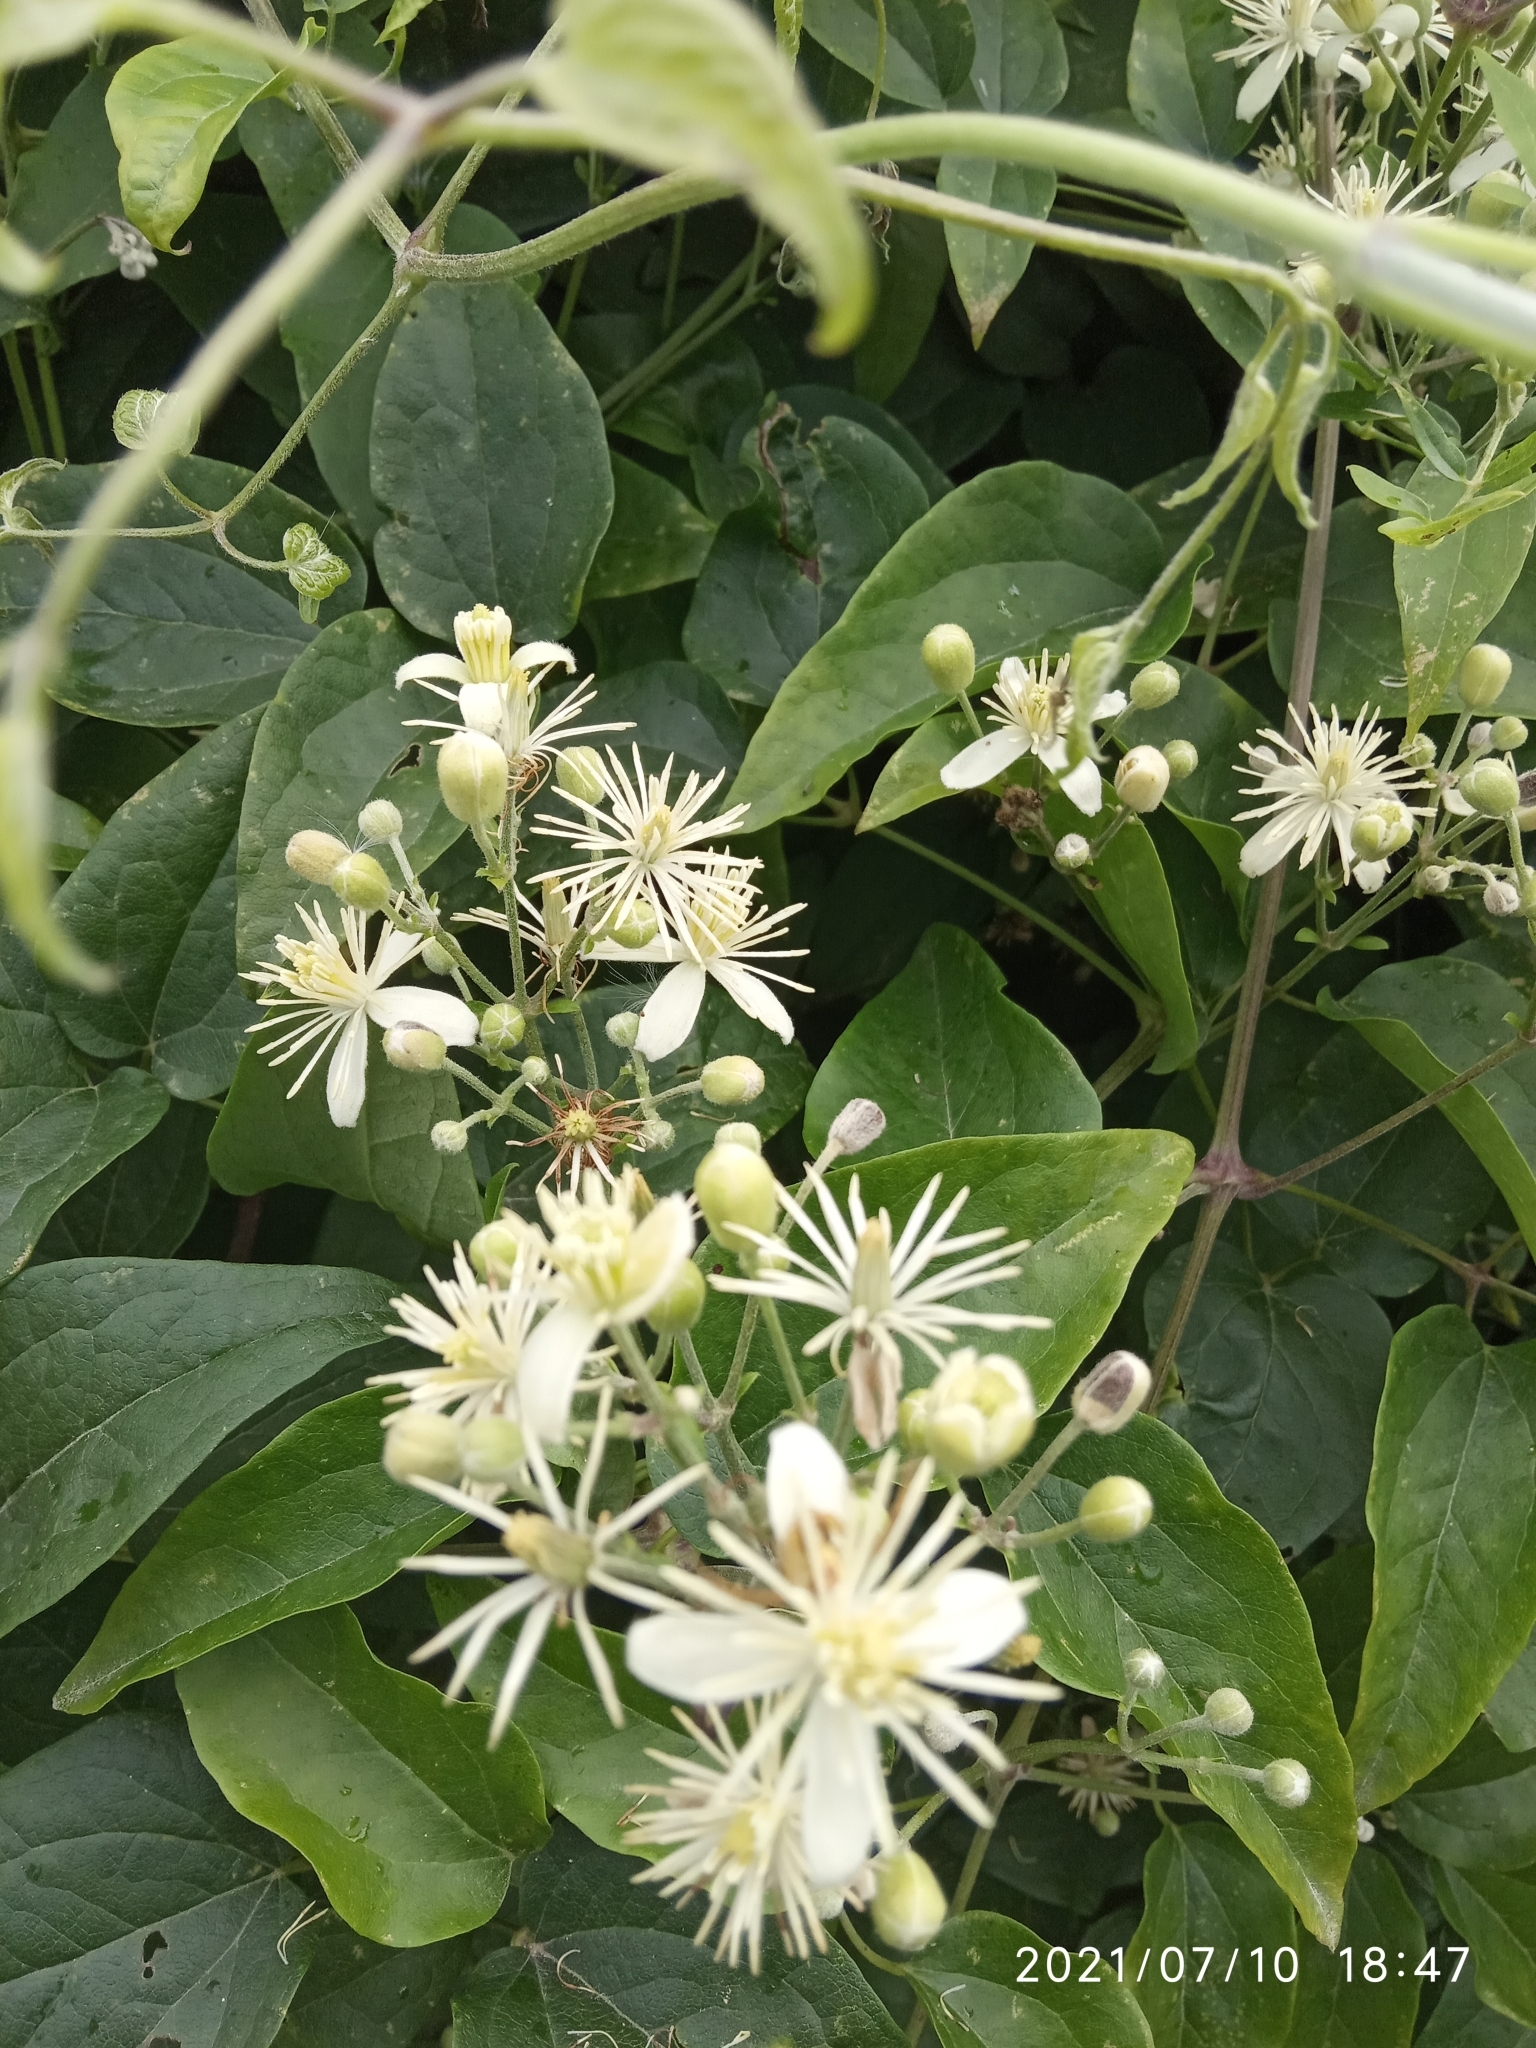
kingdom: Plantae
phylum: Tracheophyta
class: Magnoliopsida
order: Ranunculales
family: Ranunculaceae
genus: Clematis
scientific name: Clematis vitalba
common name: Evergreen clematis
